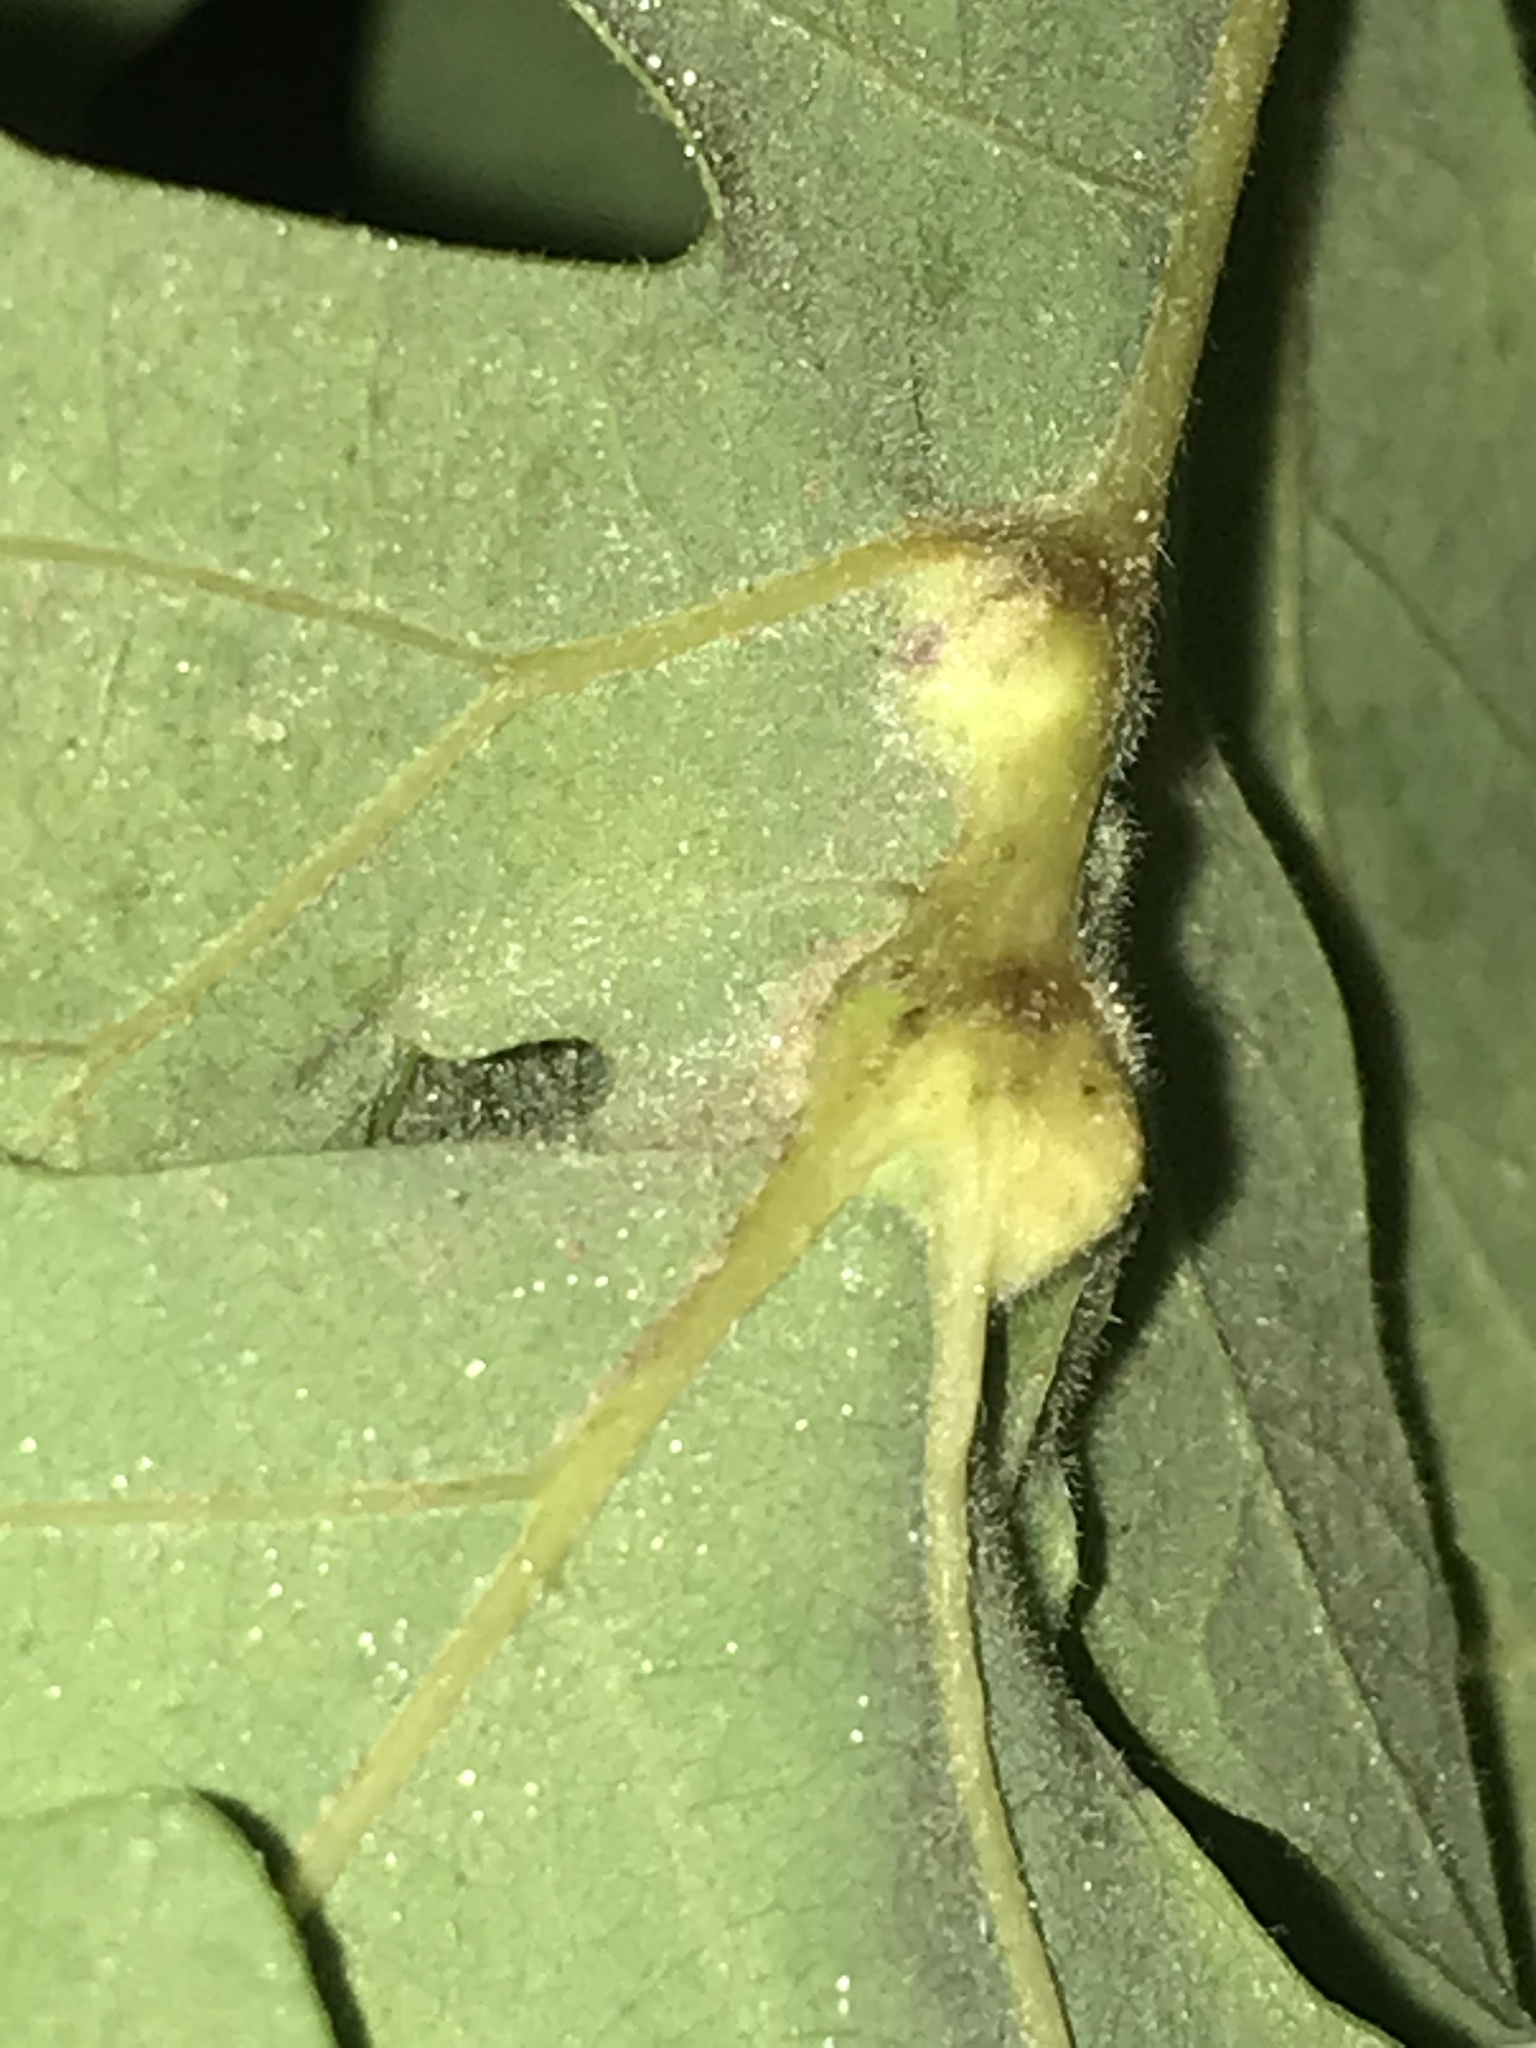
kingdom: Animalia
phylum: Arthropoda
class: Insecta
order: Hymenoptera
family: Cynipidae
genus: Bassettia
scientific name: Bassettia flavipes
